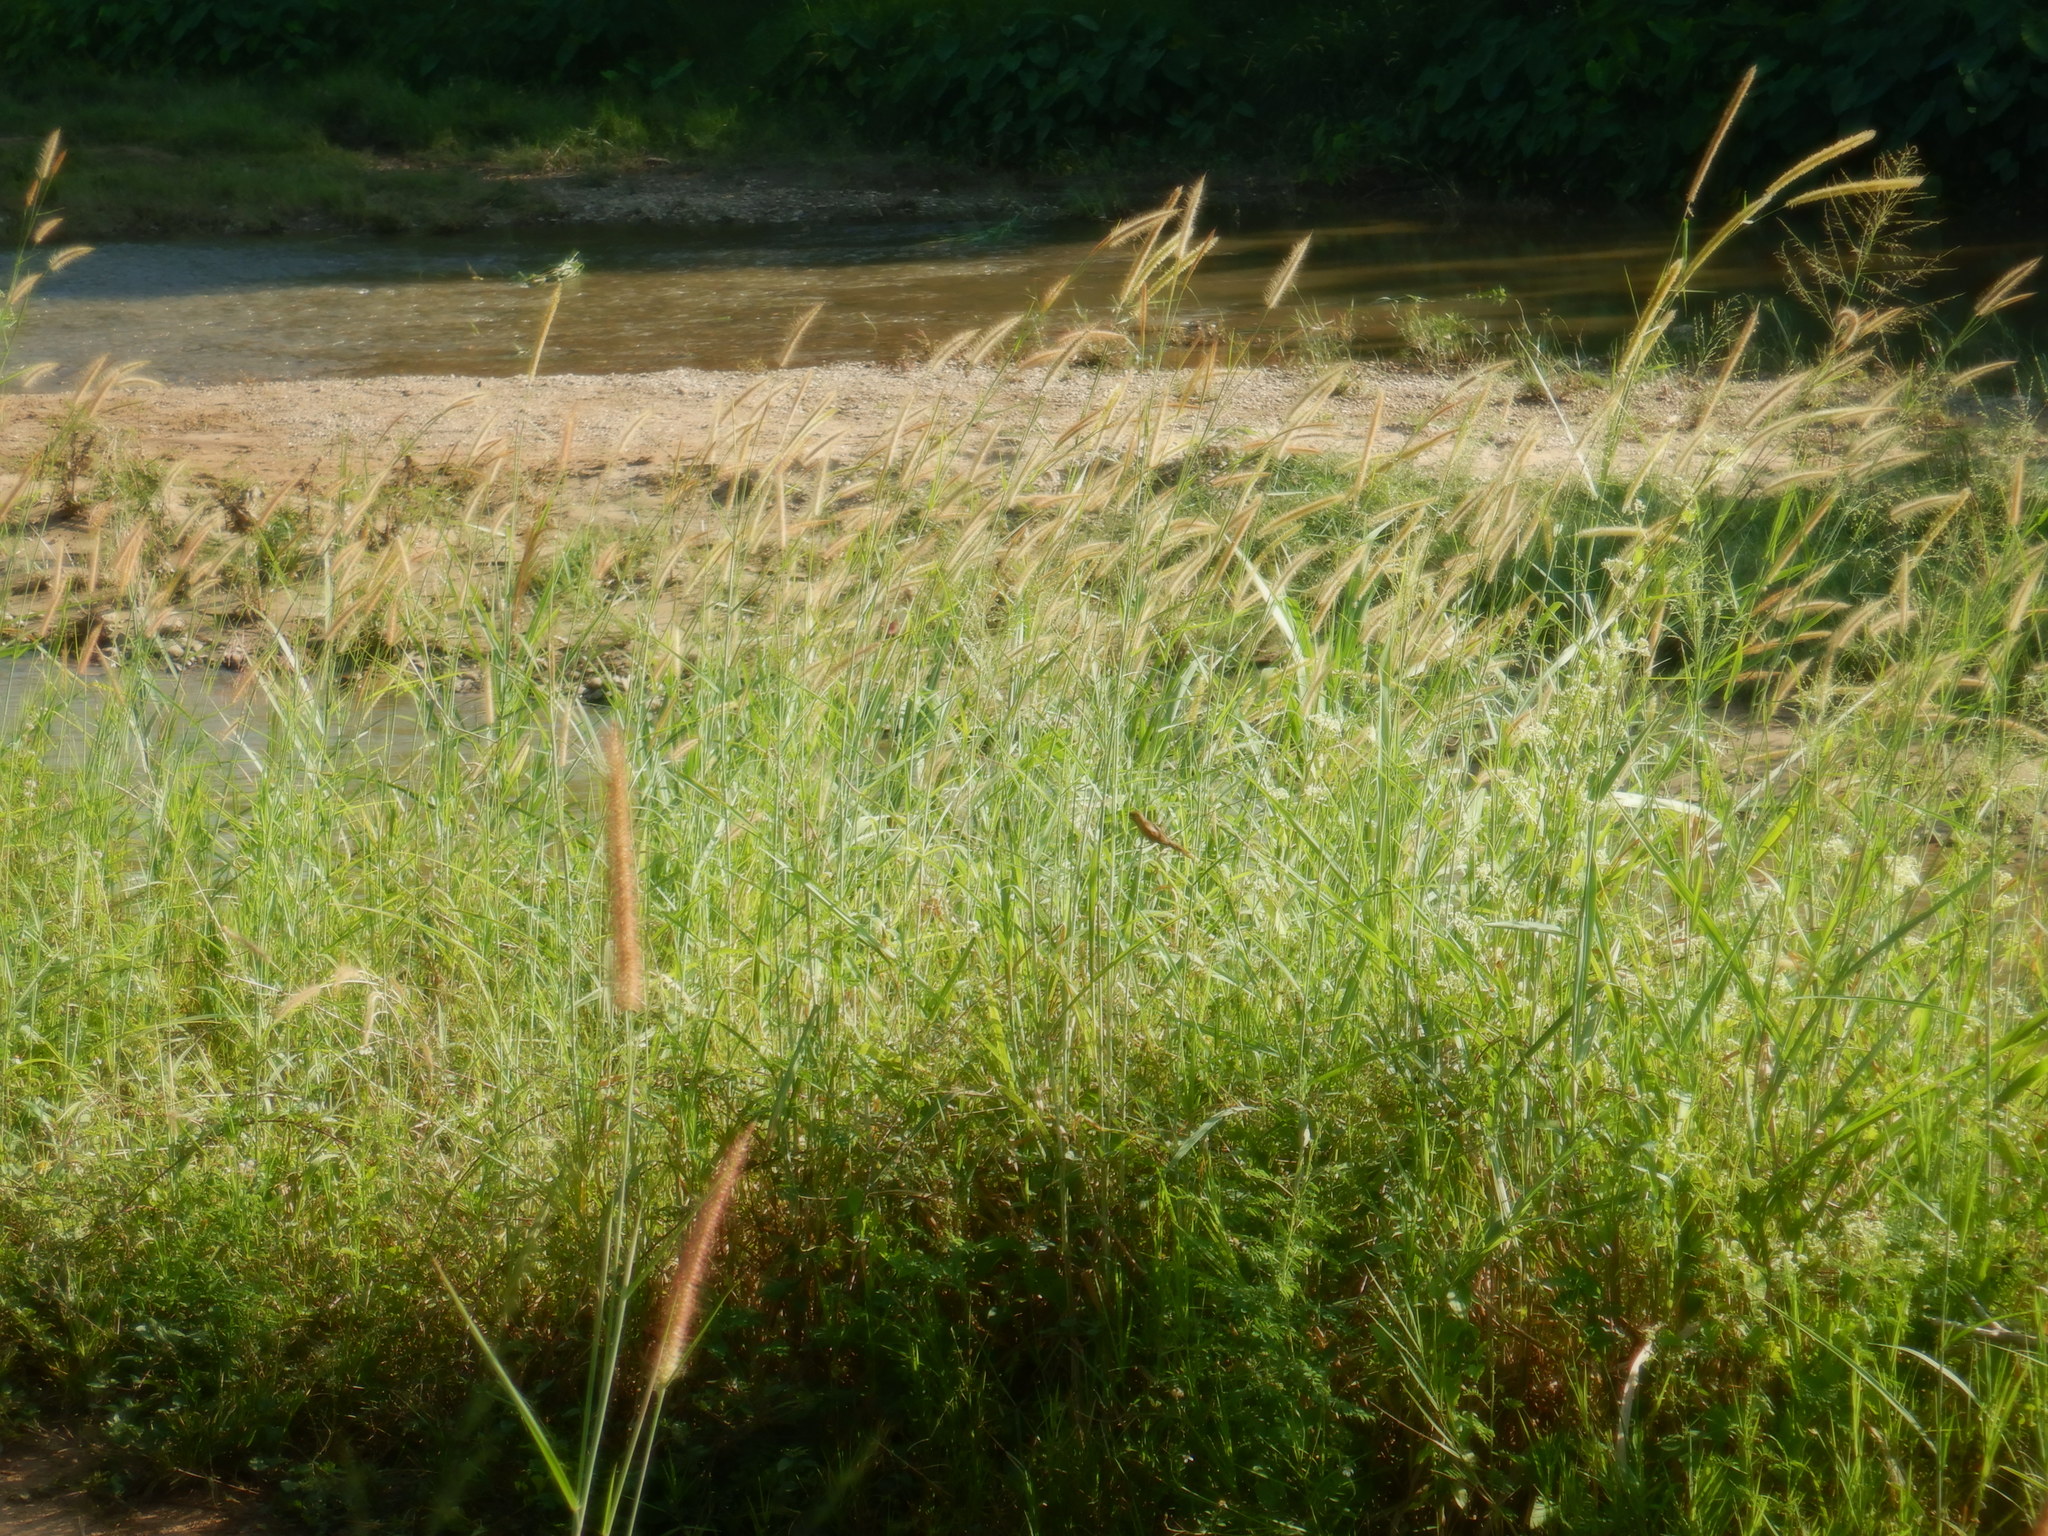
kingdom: Animalia
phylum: Chordata
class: Aves
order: Passeriformes
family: Estrildidae
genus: Lonchura
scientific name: Lonchura punctulata
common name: Scaly-breasted munia
